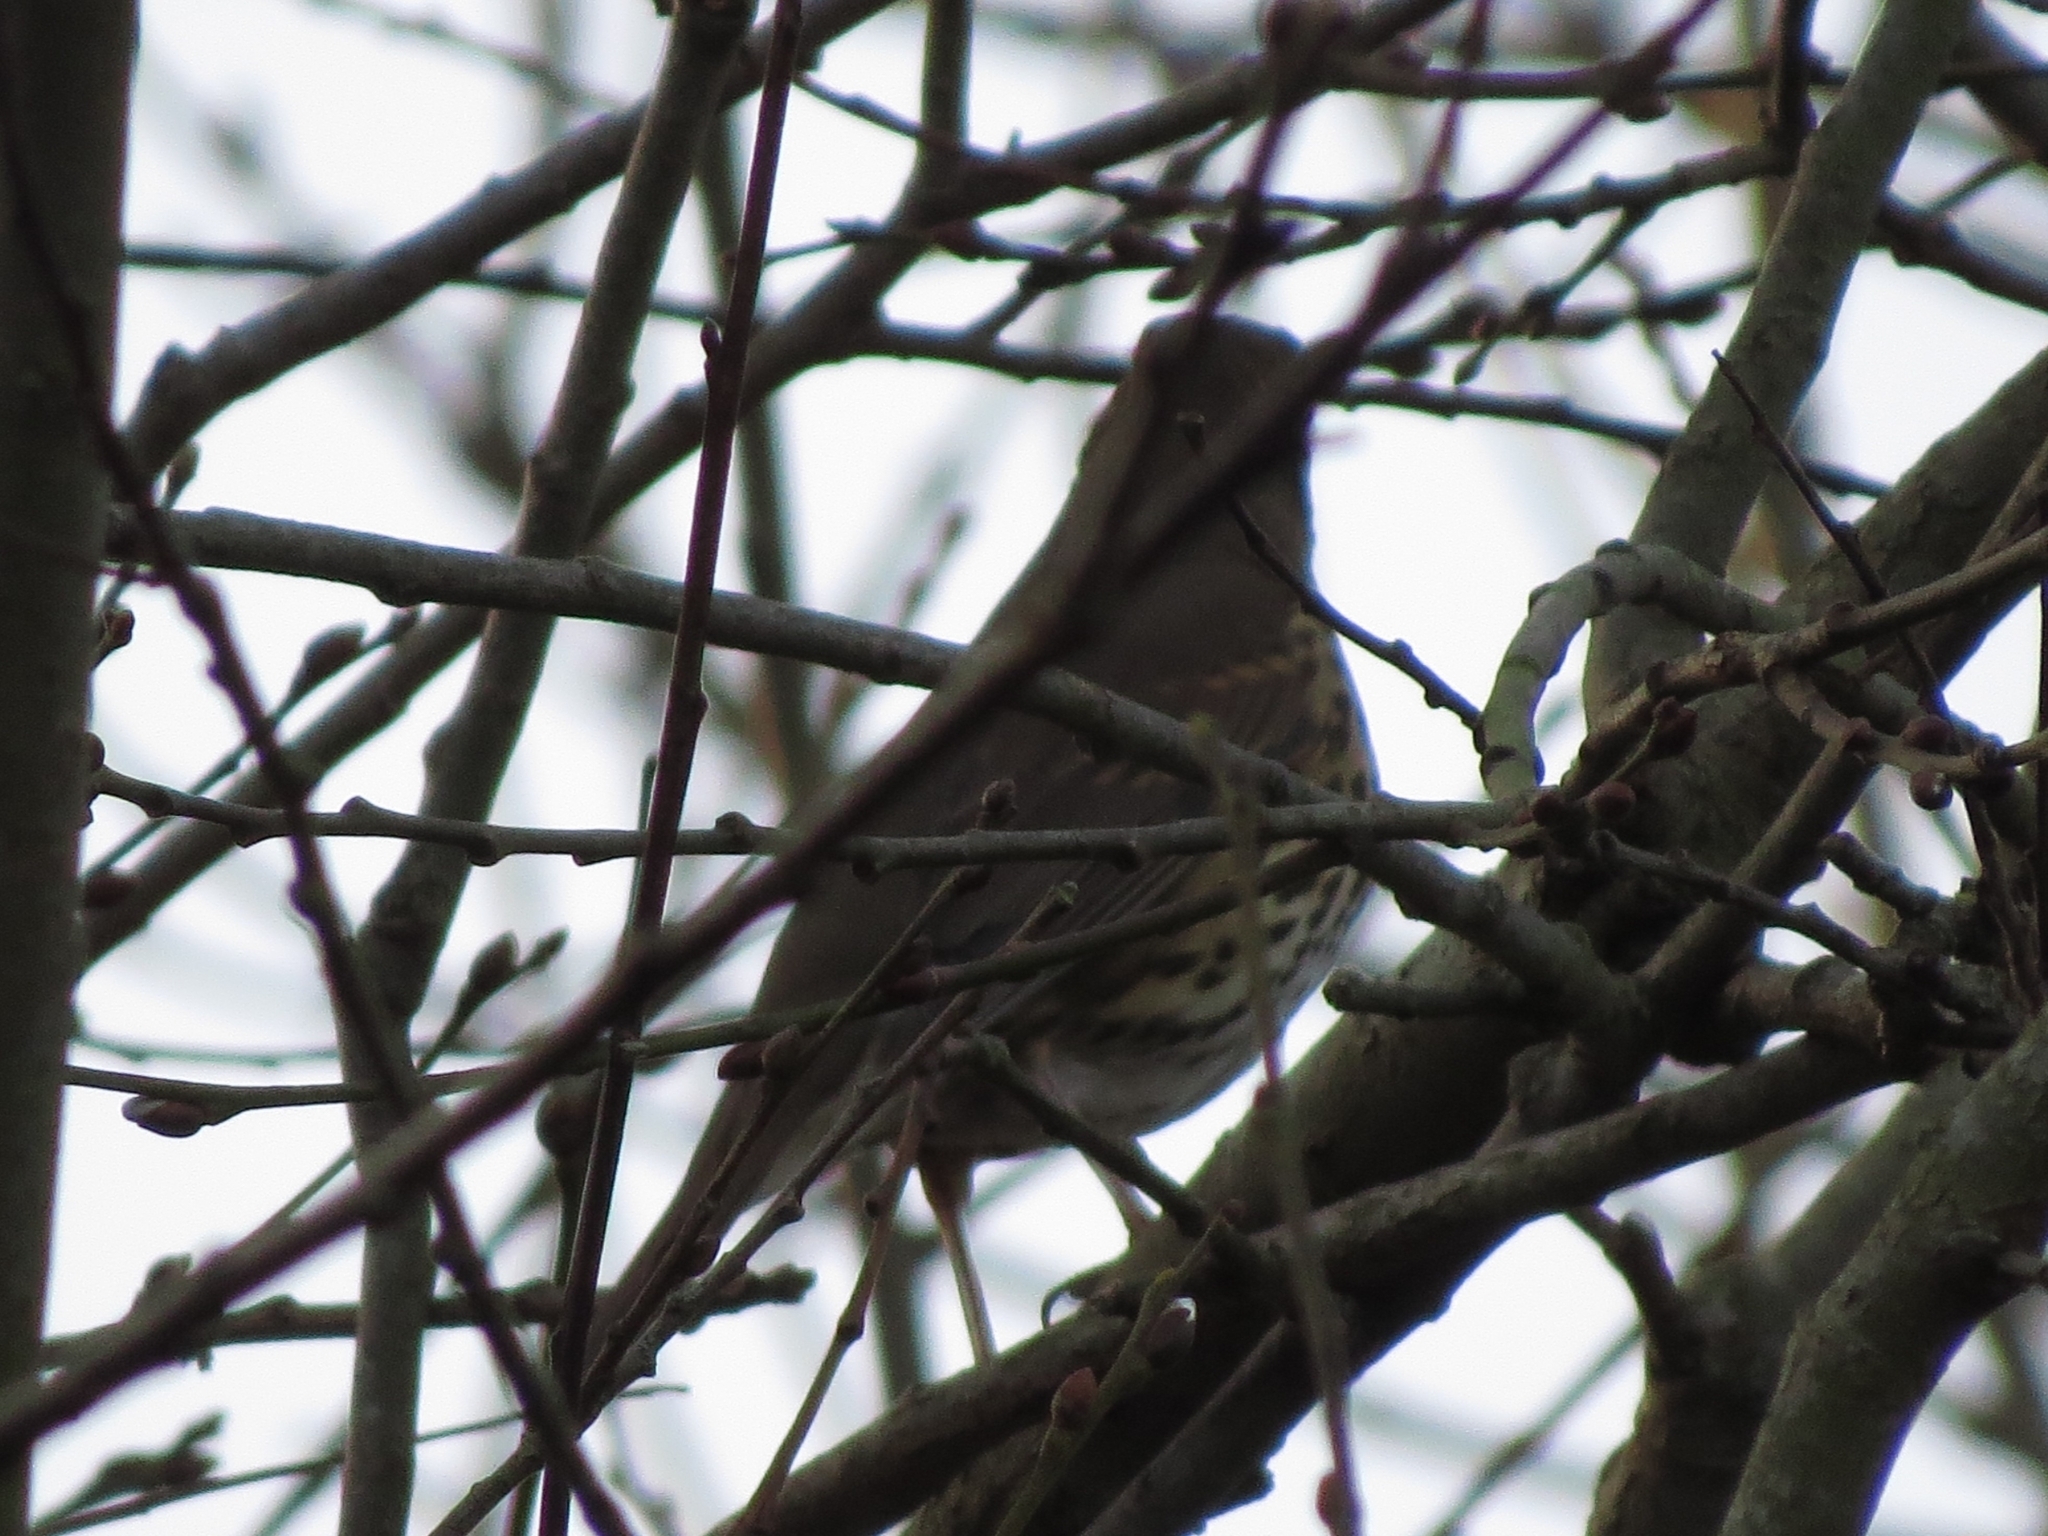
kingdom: Animalia
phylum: Chordata
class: Aves
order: Passeriformes
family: Turdidae
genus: Turdus
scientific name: Turdus philomelos
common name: Song thrush
